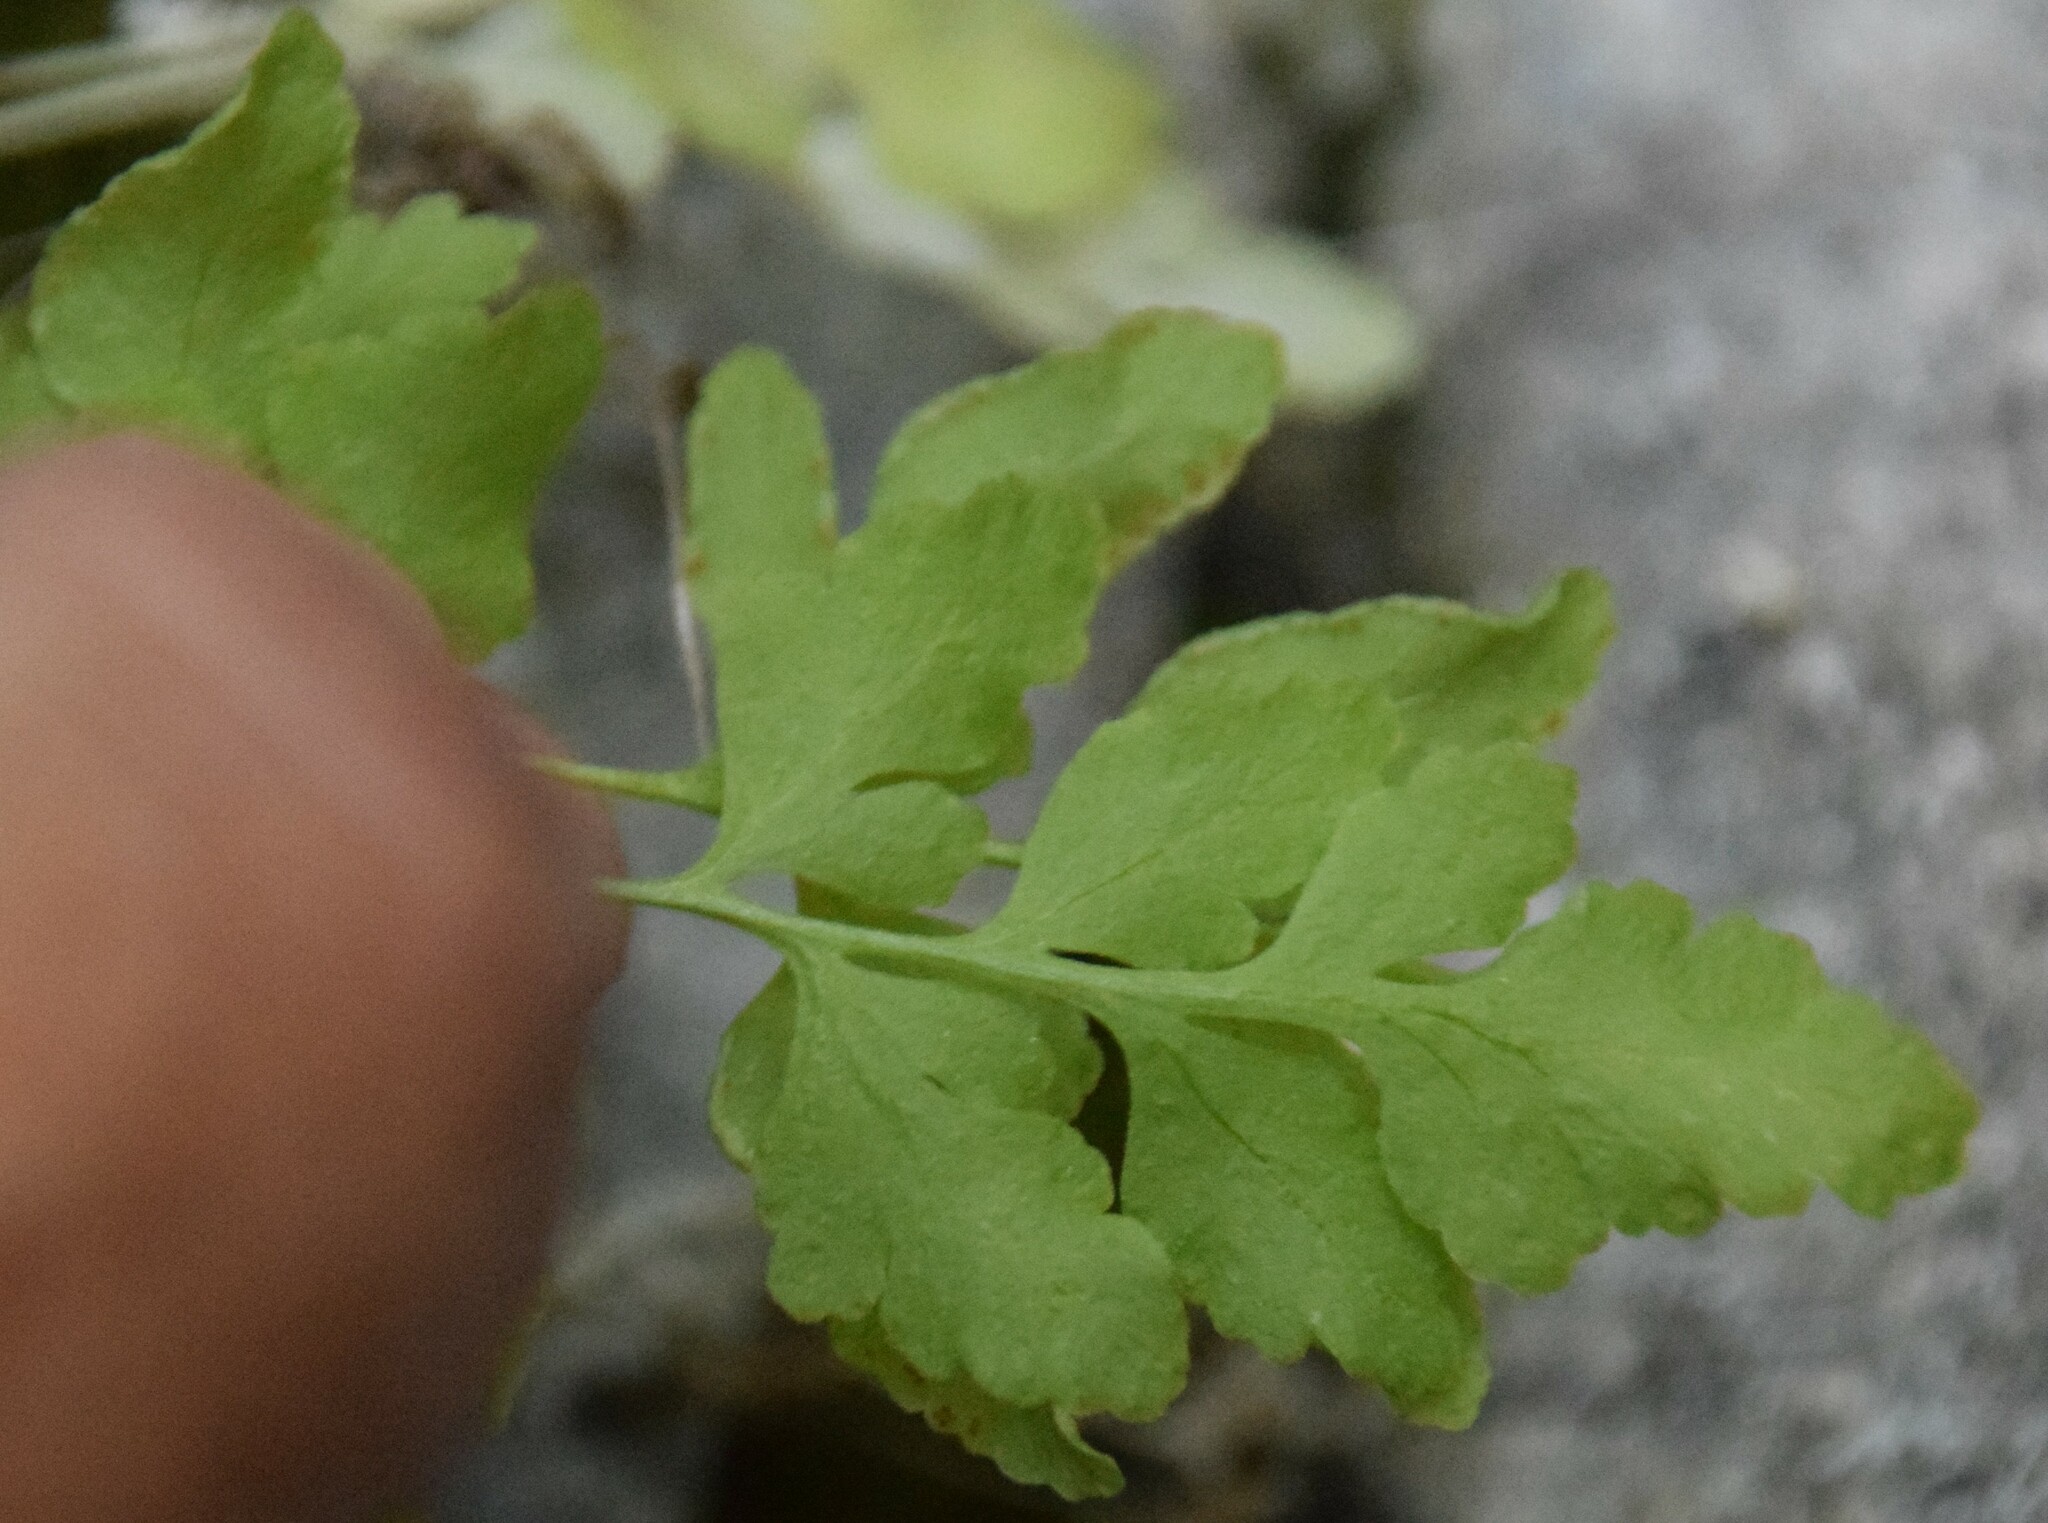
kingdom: Plantae
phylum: Tracheophyta
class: Polypodiopsida
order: Polypodiales
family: Pteridaceae
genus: Cryptogramma
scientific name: Cryptogramma stelleri
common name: Cliff-brake
